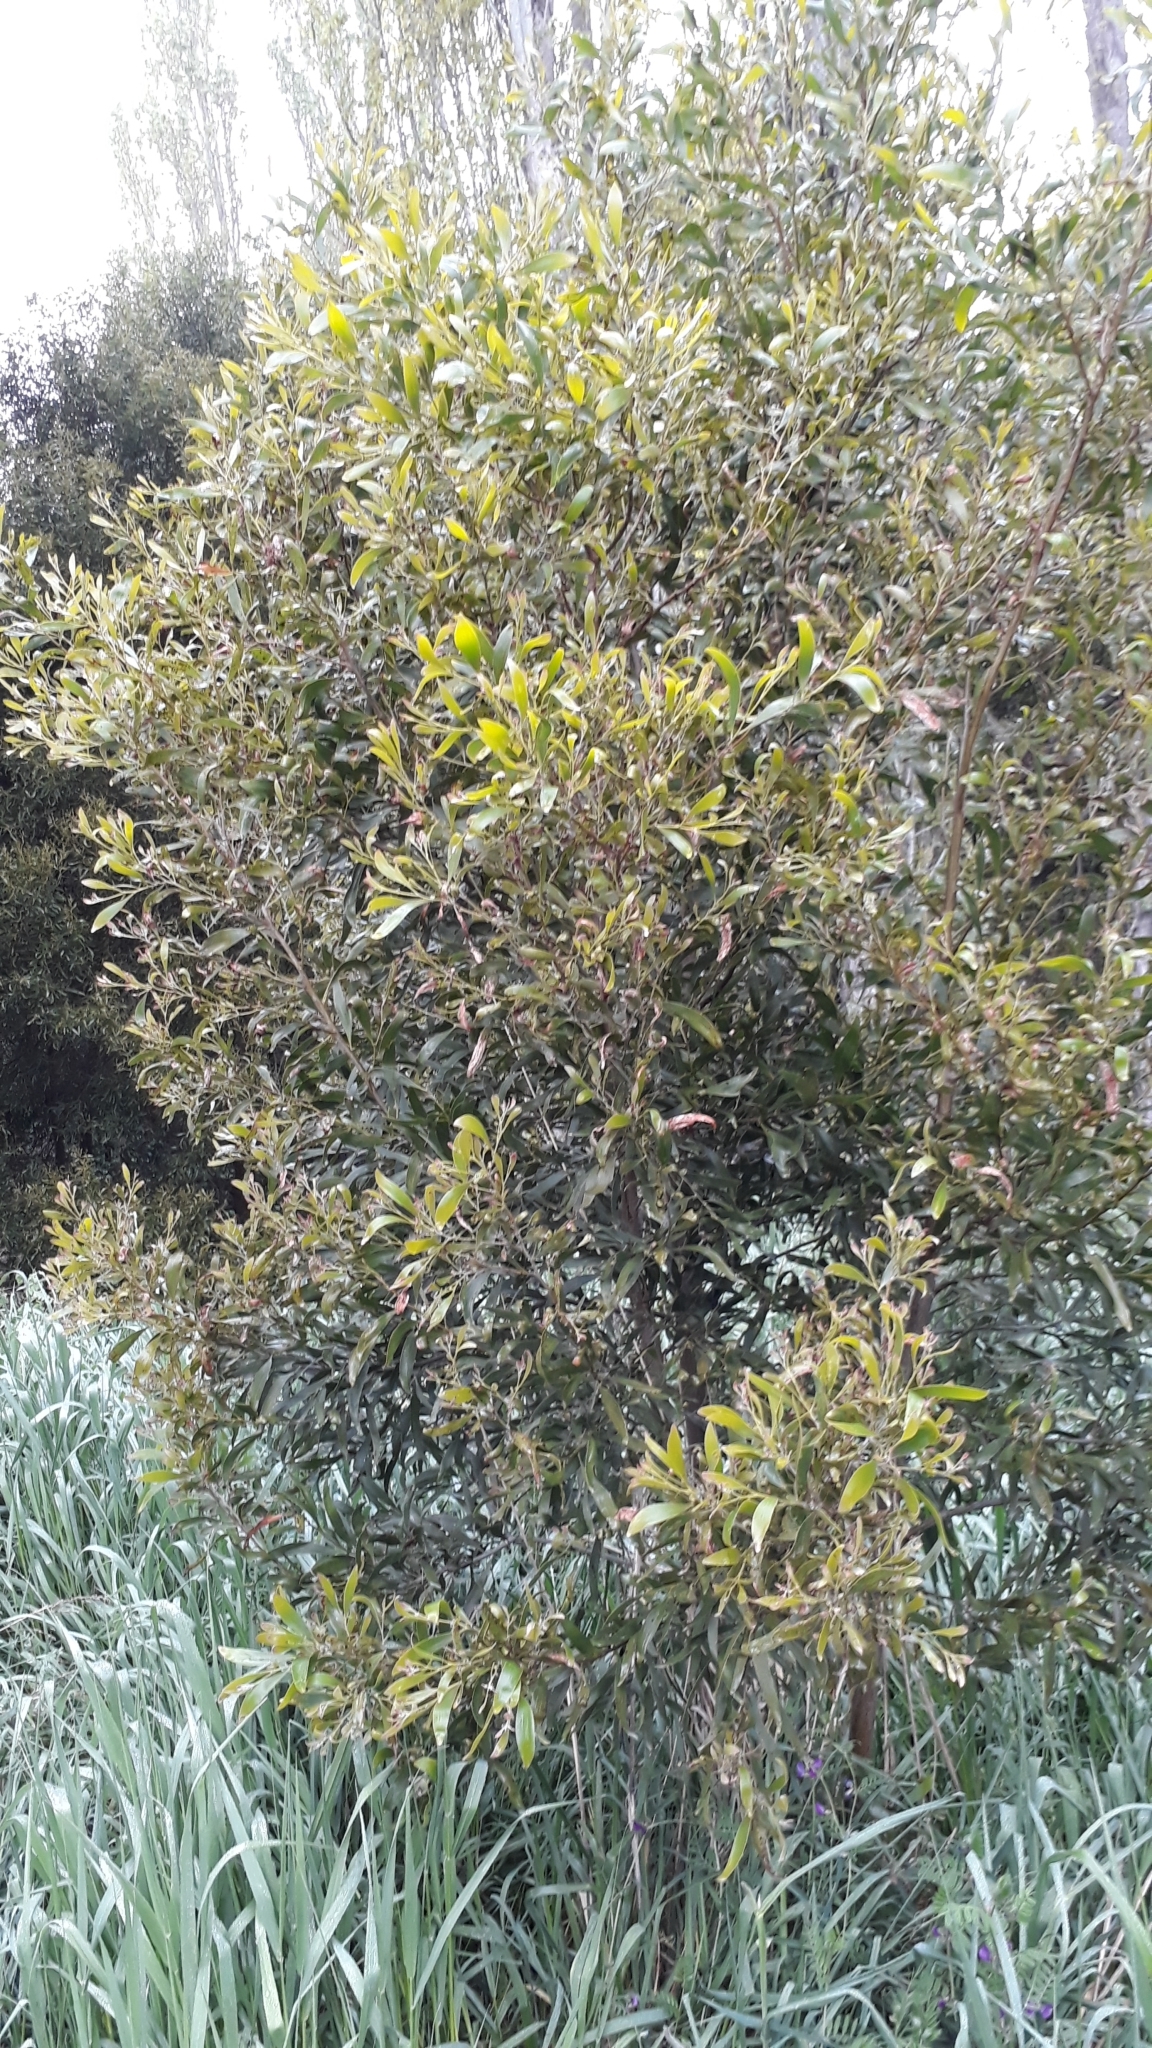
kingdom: Plantae
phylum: Tracheophyta
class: Magnoliopsida
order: Fabales
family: Fabaceae
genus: Acacia
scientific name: Acacia melanoxylon
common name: Blackwood
